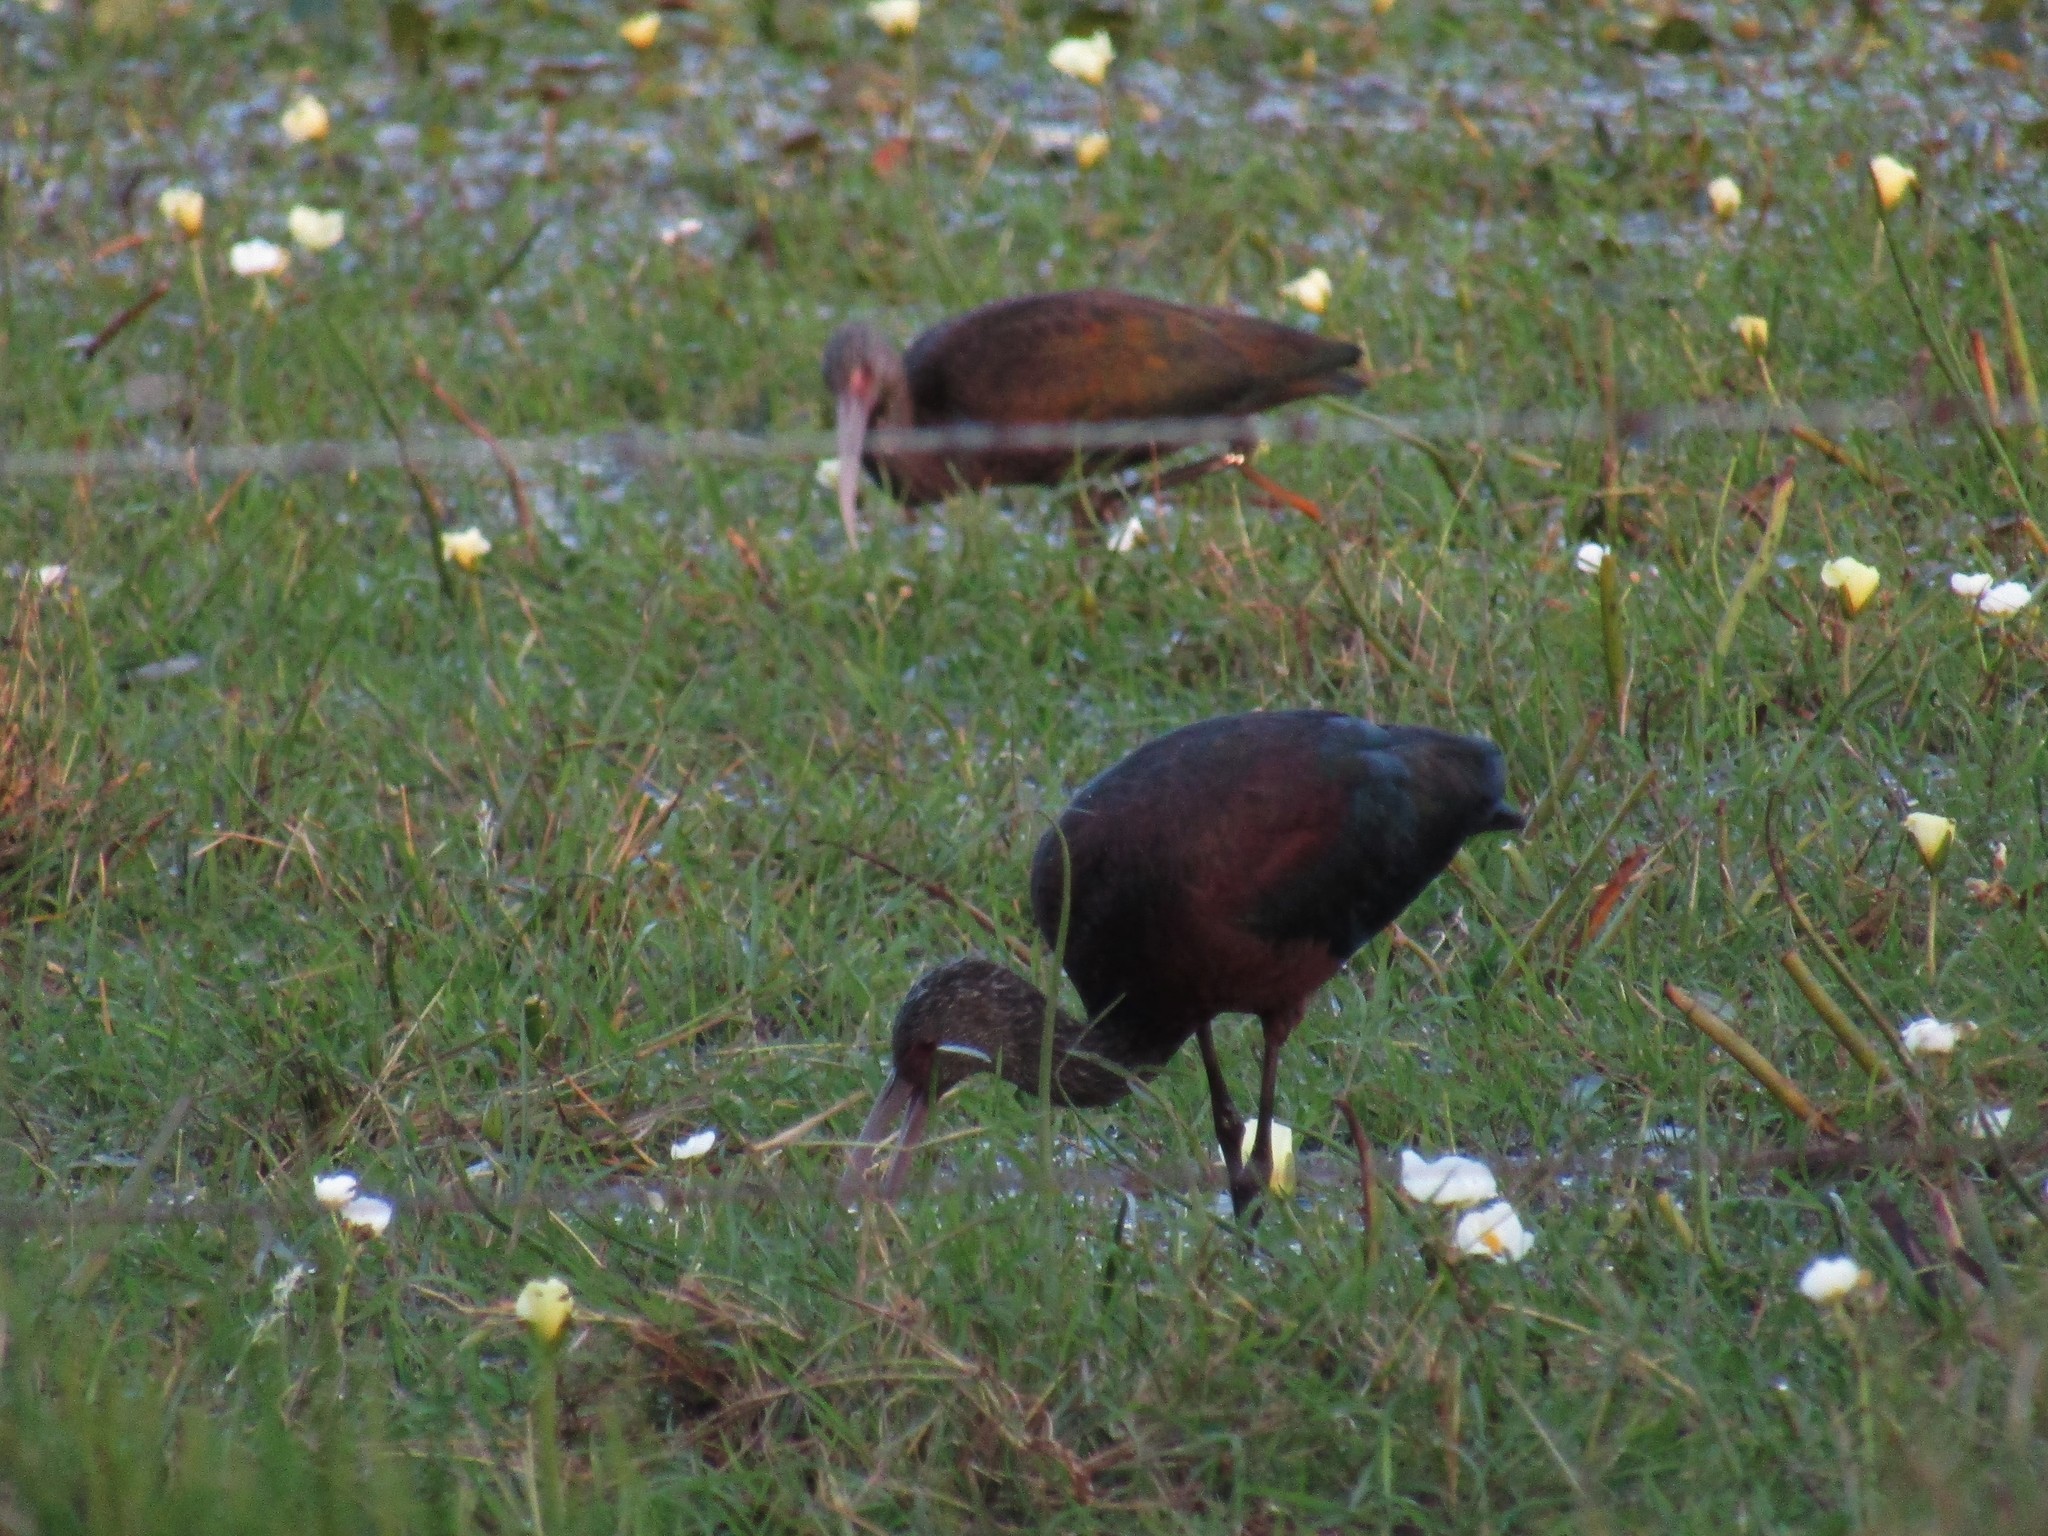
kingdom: Animalia
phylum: Chordata
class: Aves
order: Pelecaniformes
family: Threskiornithidae
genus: Plegadis
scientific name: Plegadis chihi
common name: White-faced ibis
